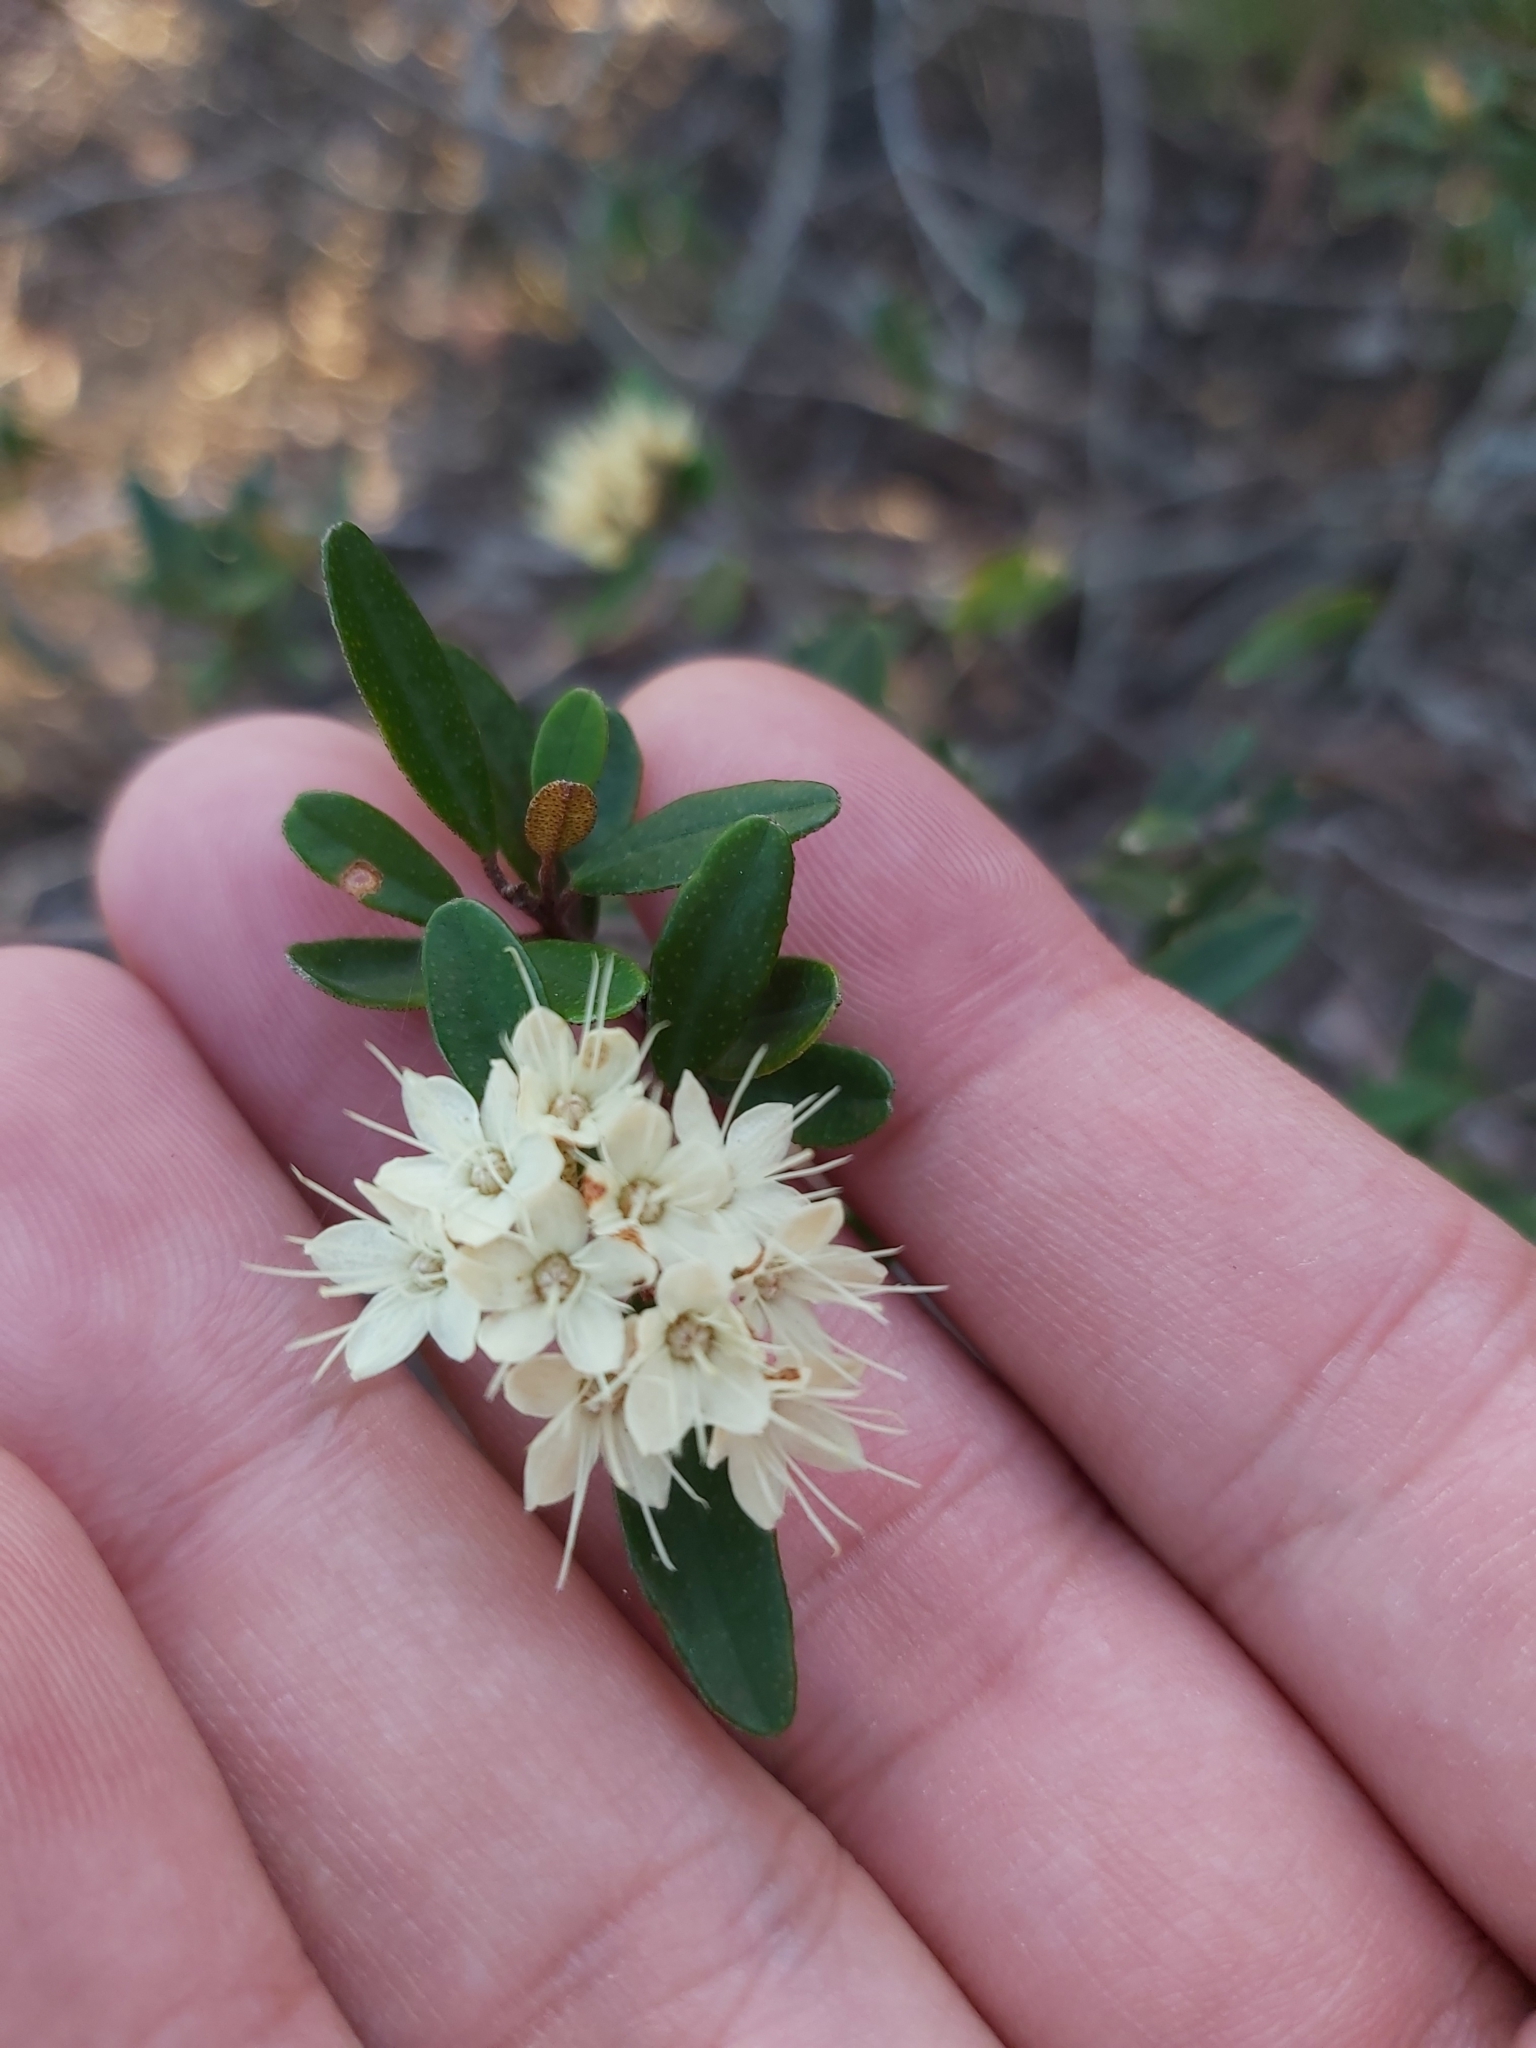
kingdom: Plantae
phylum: Tracheophyta
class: Magnoliopsida
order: Sapindales
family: Rutaceae
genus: Phebalium
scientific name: Phebalium squamulosum
